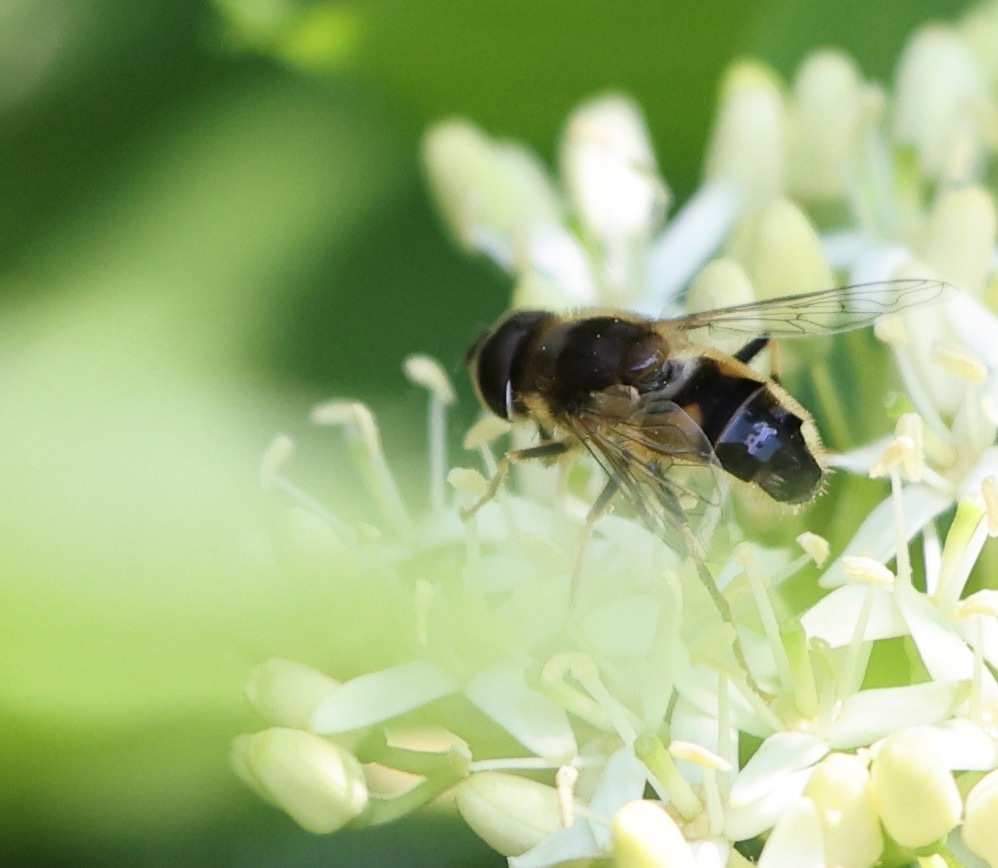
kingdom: Animalia
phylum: Arthropoda
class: Insecta
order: Diptera
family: Syrphidae
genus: Eristalis
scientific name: Eristalis pertinax
